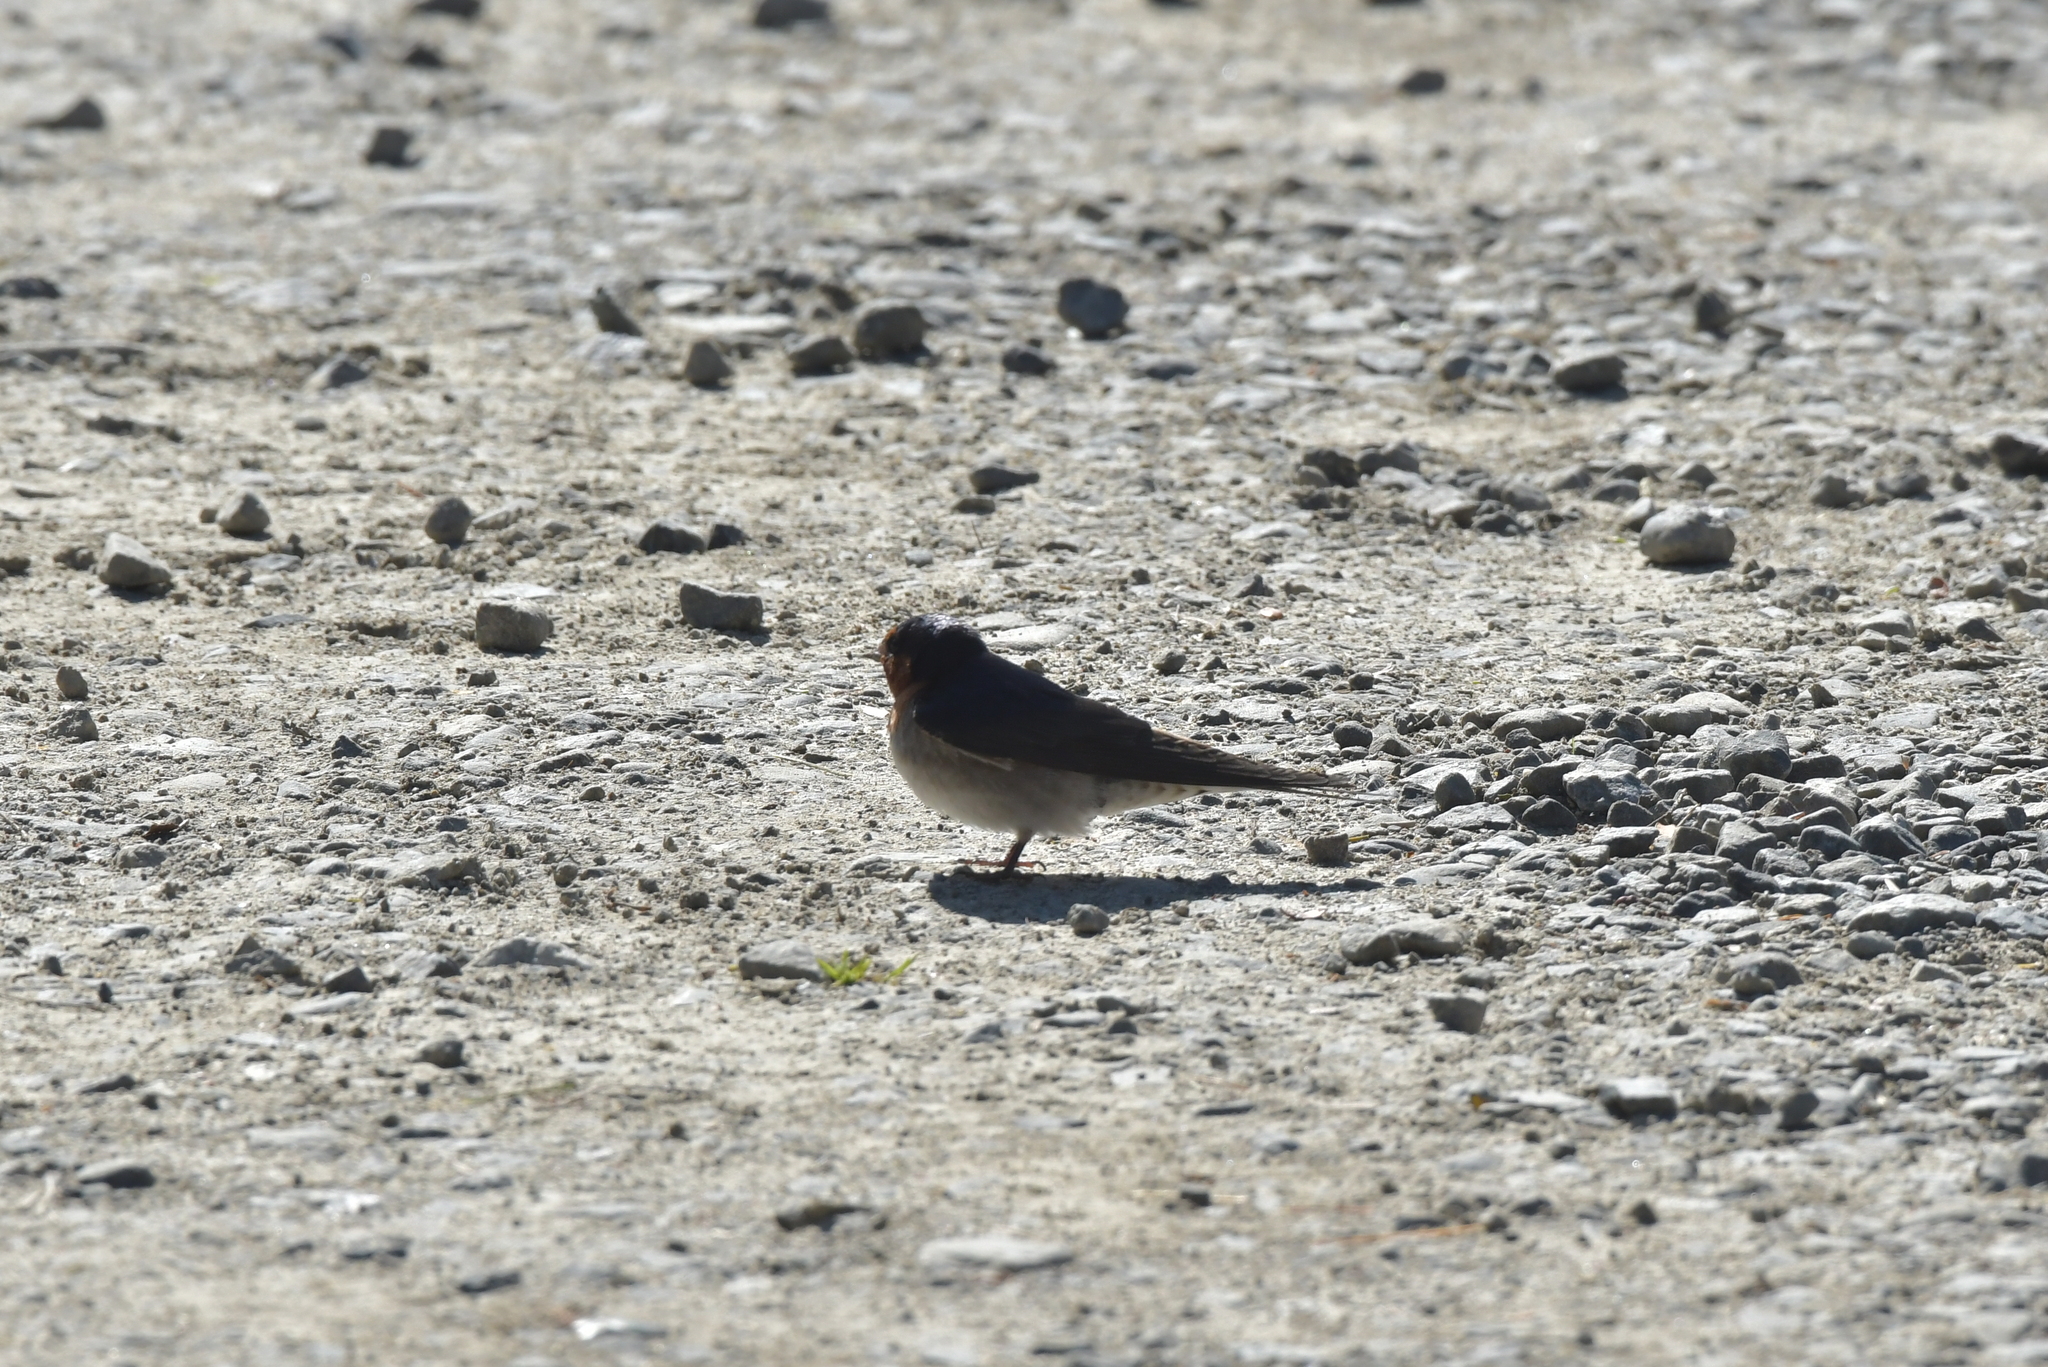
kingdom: Animalia
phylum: Chordata
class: Aves
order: Passeriformes
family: Hirundinidae
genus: Hirundo
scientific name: Hirundo neoxena
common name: Welcome swallow
